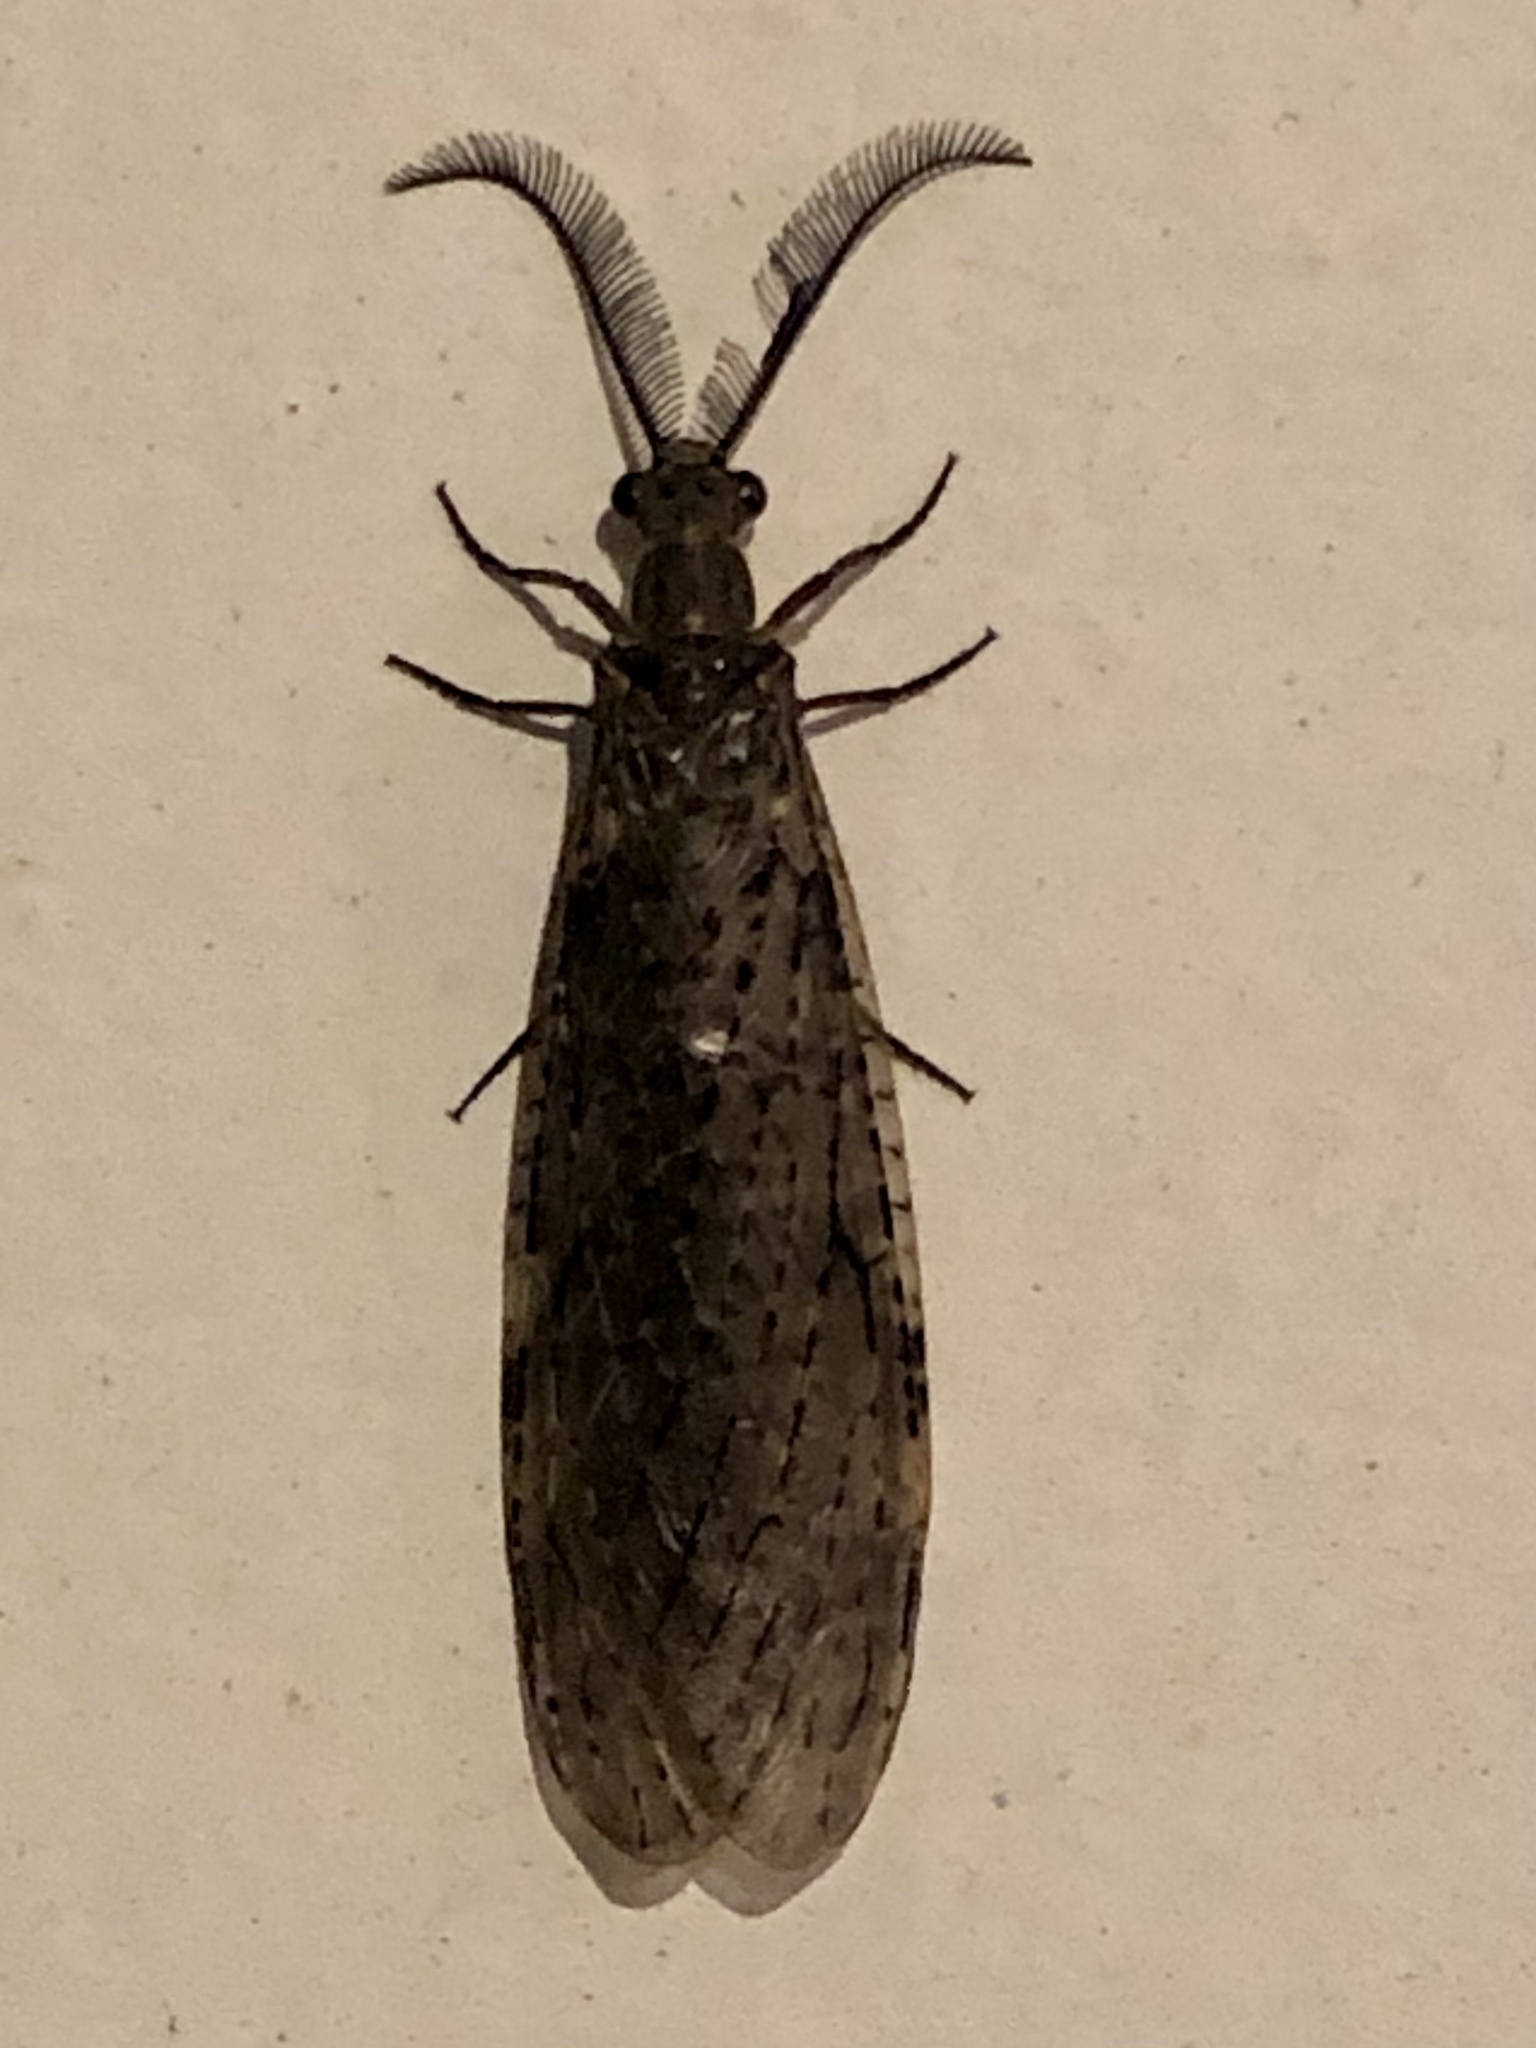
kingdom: Animalia
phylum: Arthropoda
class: Insecta
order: Megaloptera
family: Corydalidae
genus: Chauliodes
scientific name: Chauliodes rastricornis
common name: Spring fishfly
